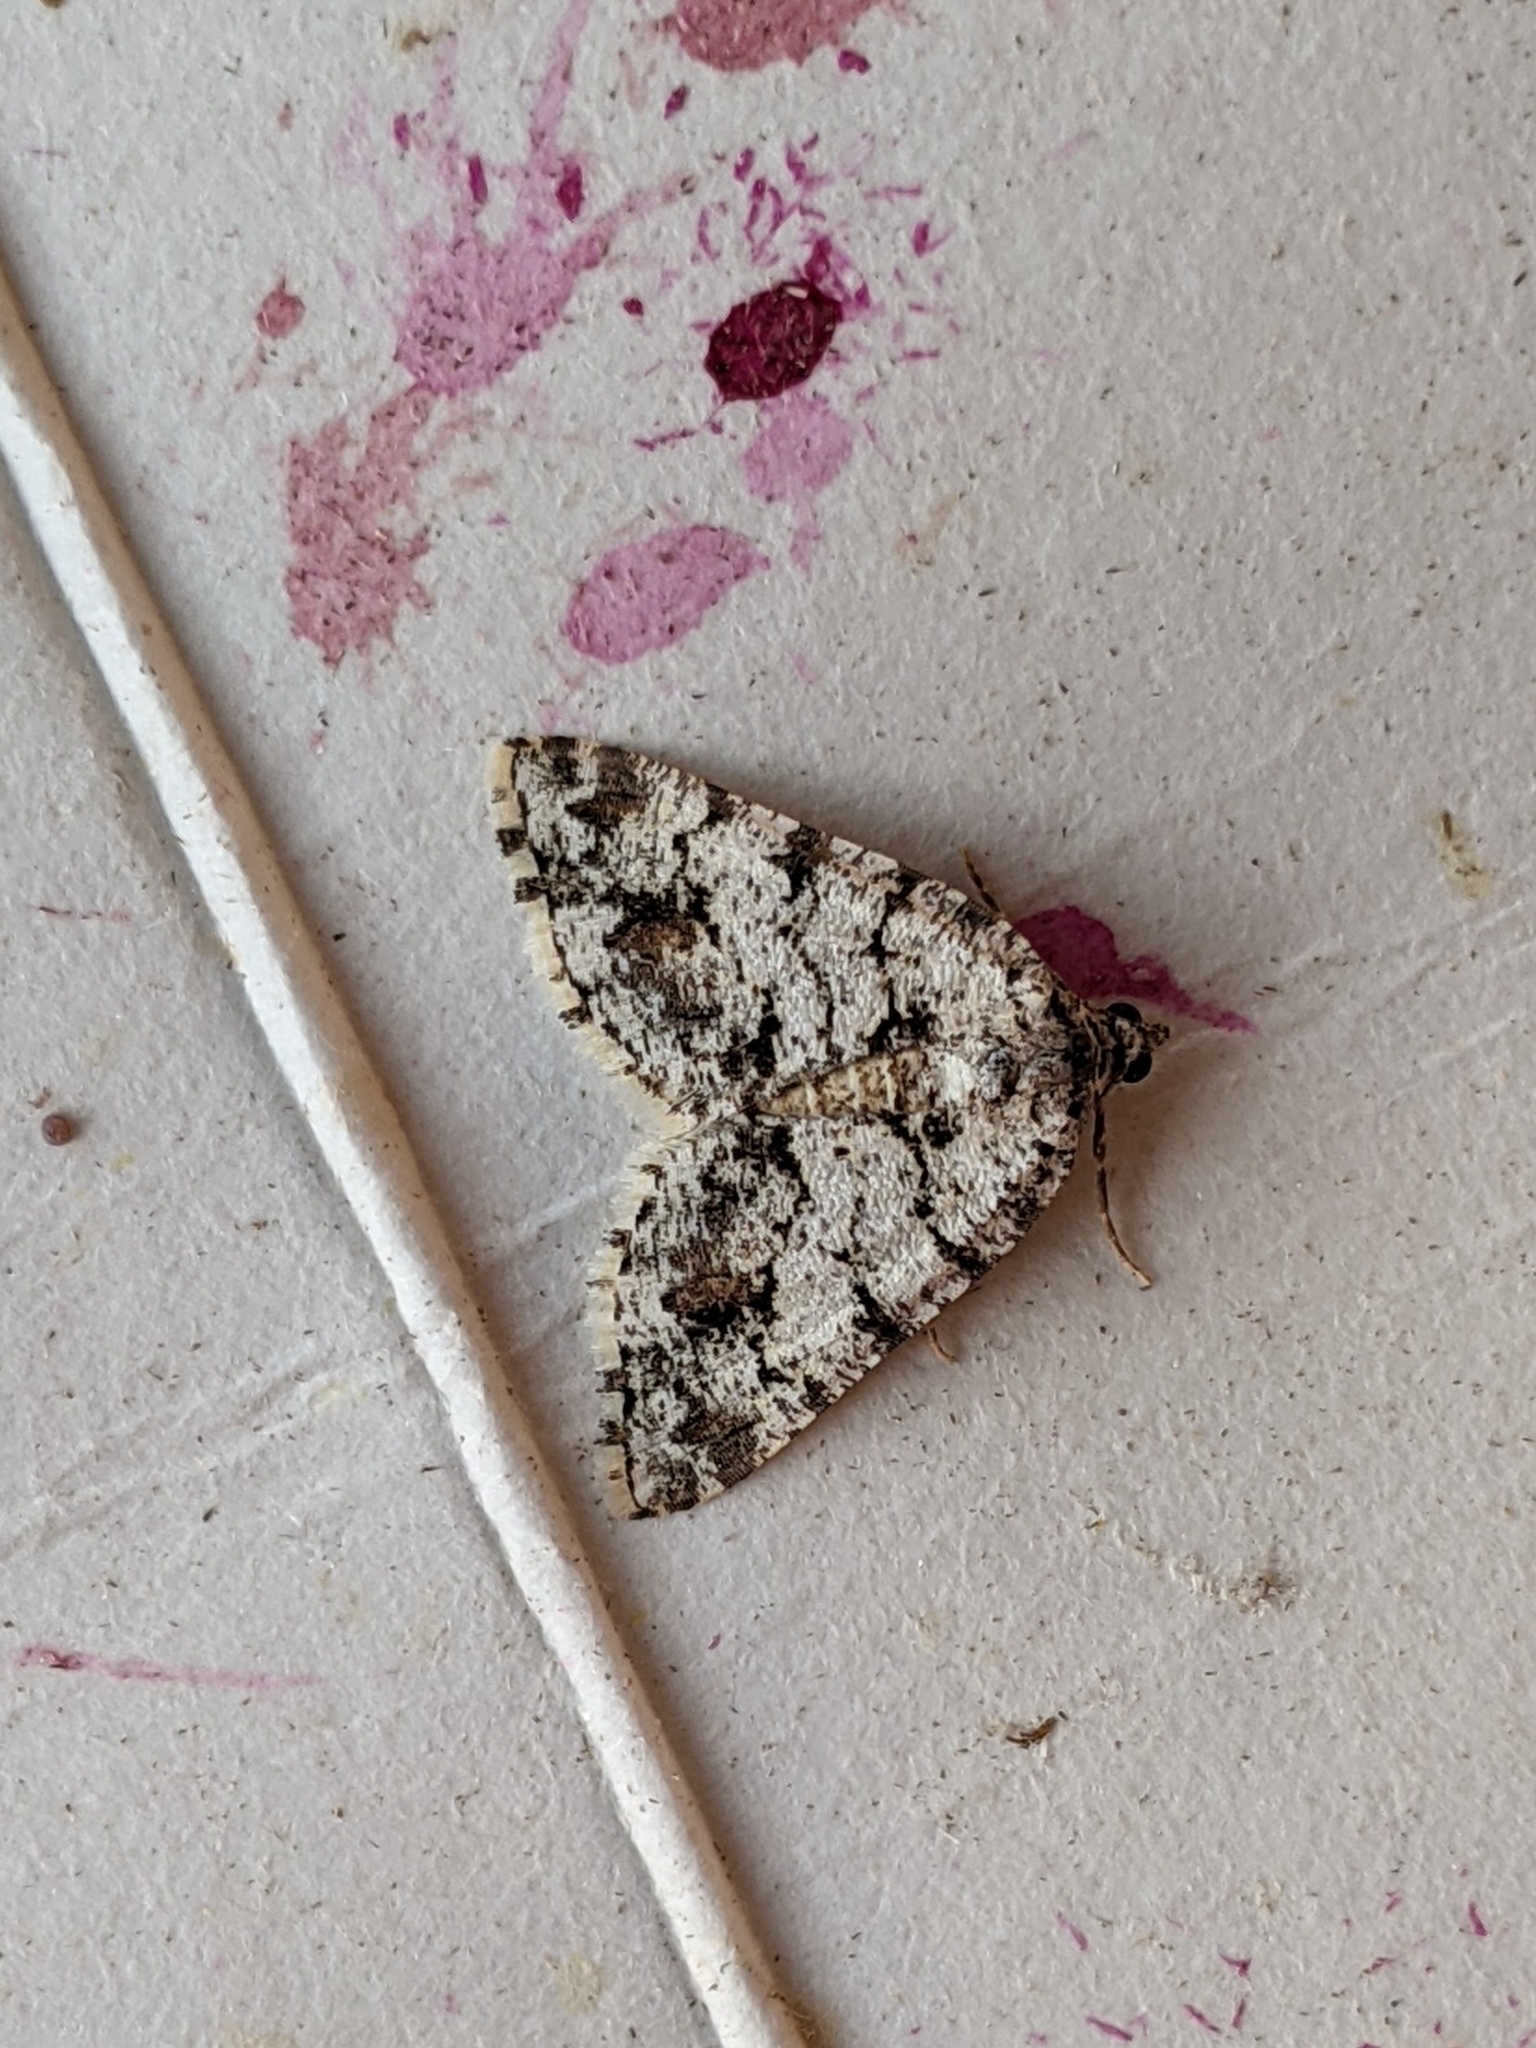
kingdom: Animalia
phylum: Arthropoda
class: Insecta
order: Lepidoptera
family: Geometridae
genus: Macaria
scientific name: Macaria graphidaria
